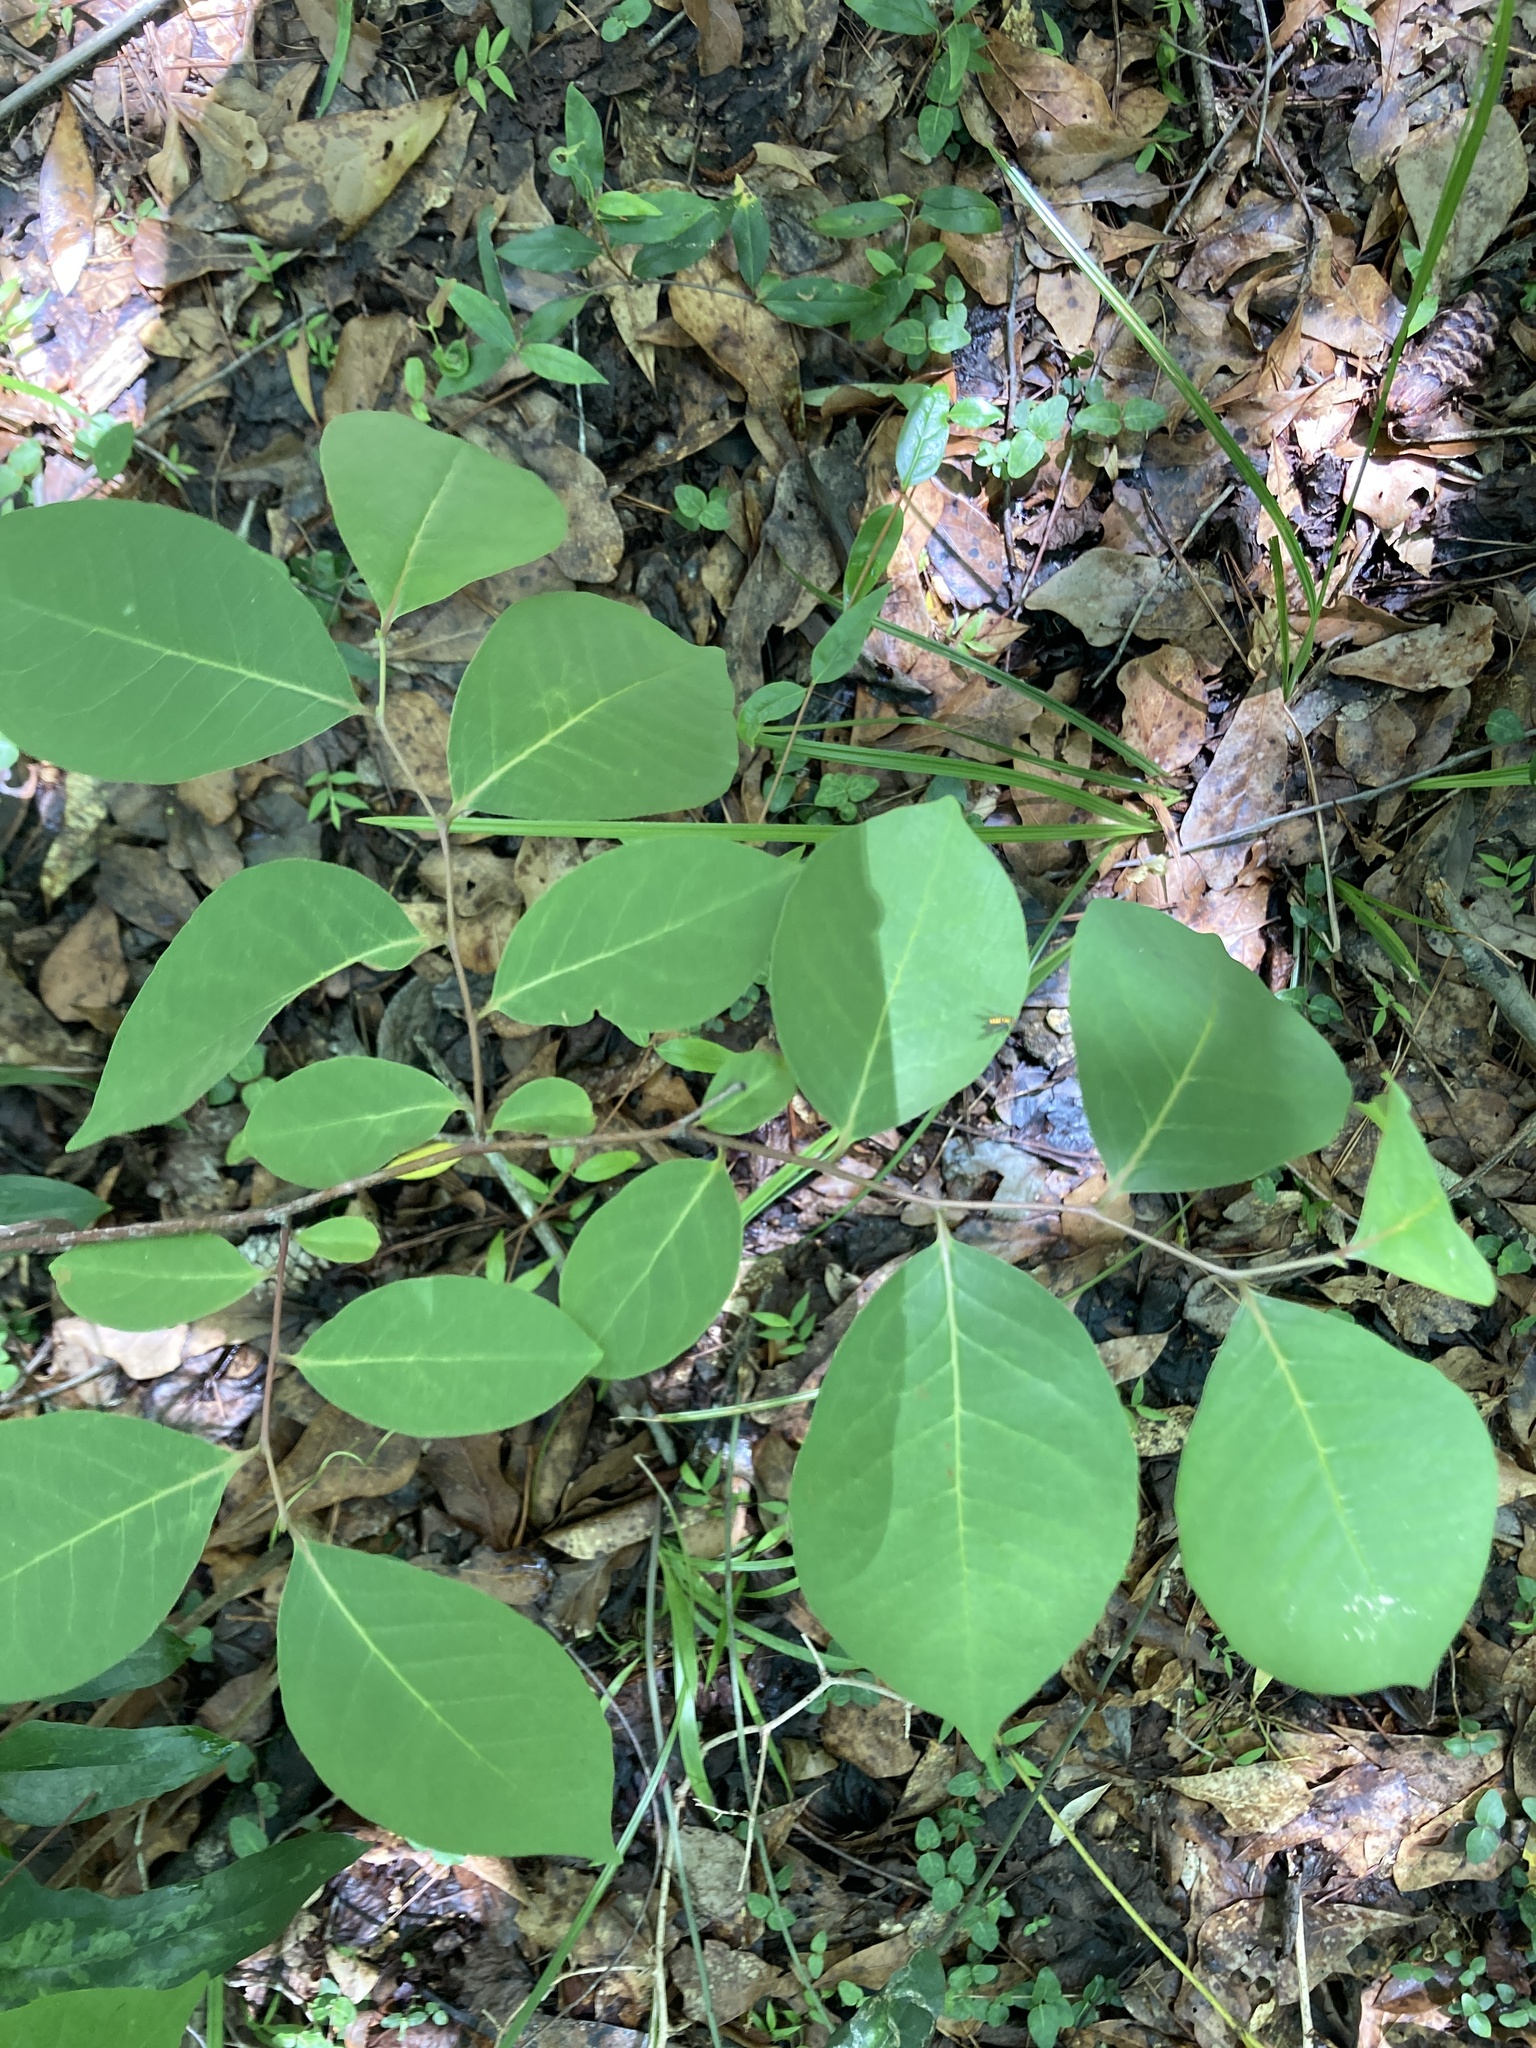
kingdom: Plantae
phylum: Tracheophyta
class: Magnoliopsida
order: Ericales
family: Ebenaceae
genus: Diospyros
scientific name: Diospyros virginiana
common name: Persimmon
